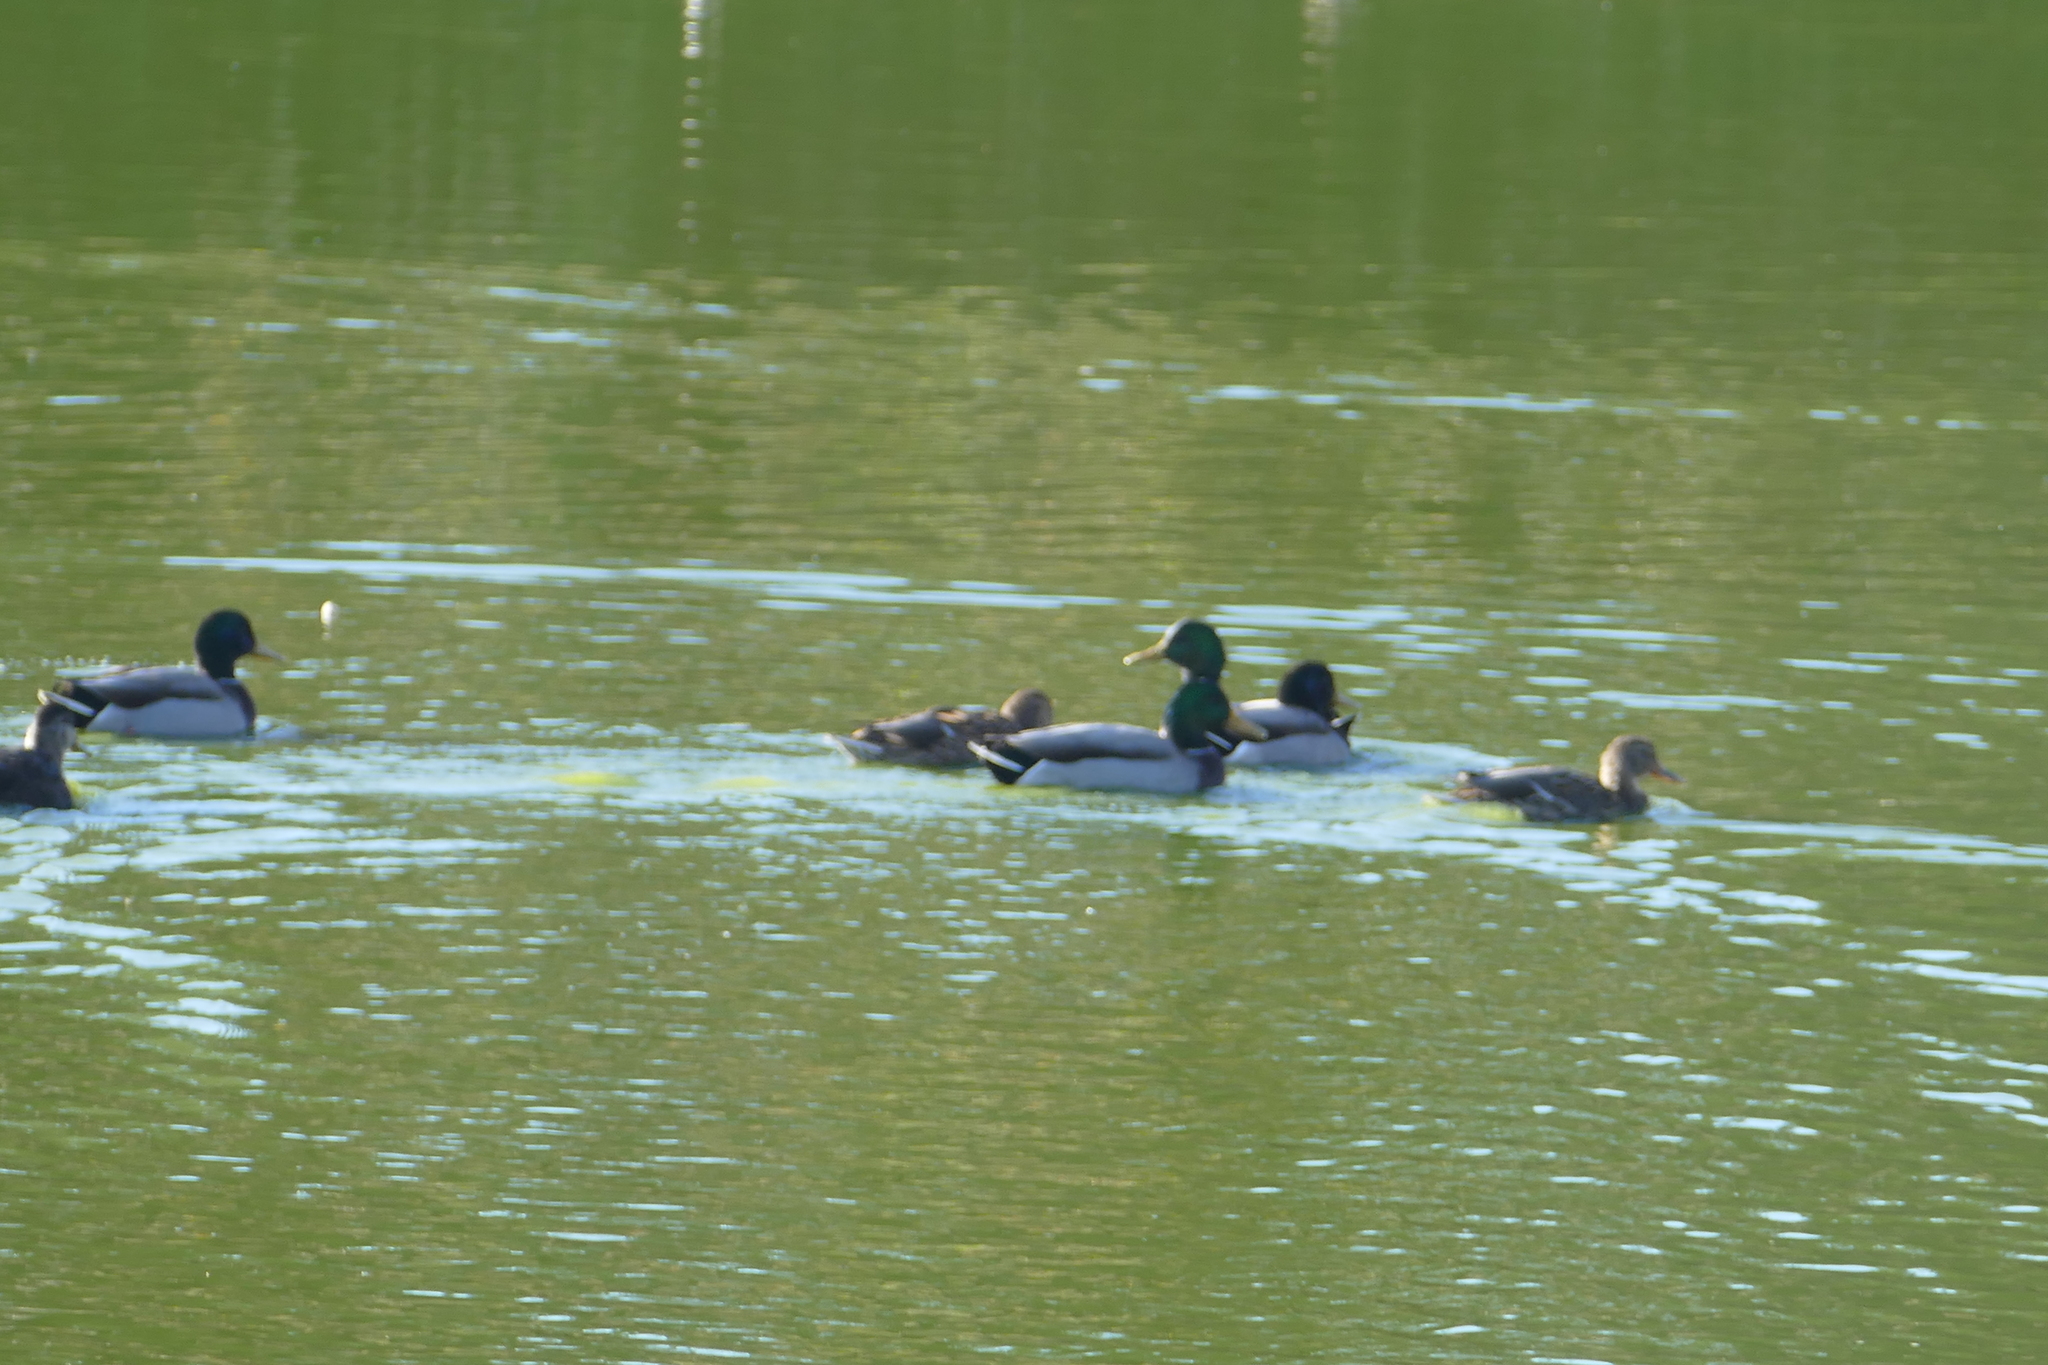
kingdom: Animalia
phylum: Chordata
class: Aves
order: Anseriformes
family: Anatidae
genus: Anas
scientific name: Anas platyrhynchos
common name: Mallard
